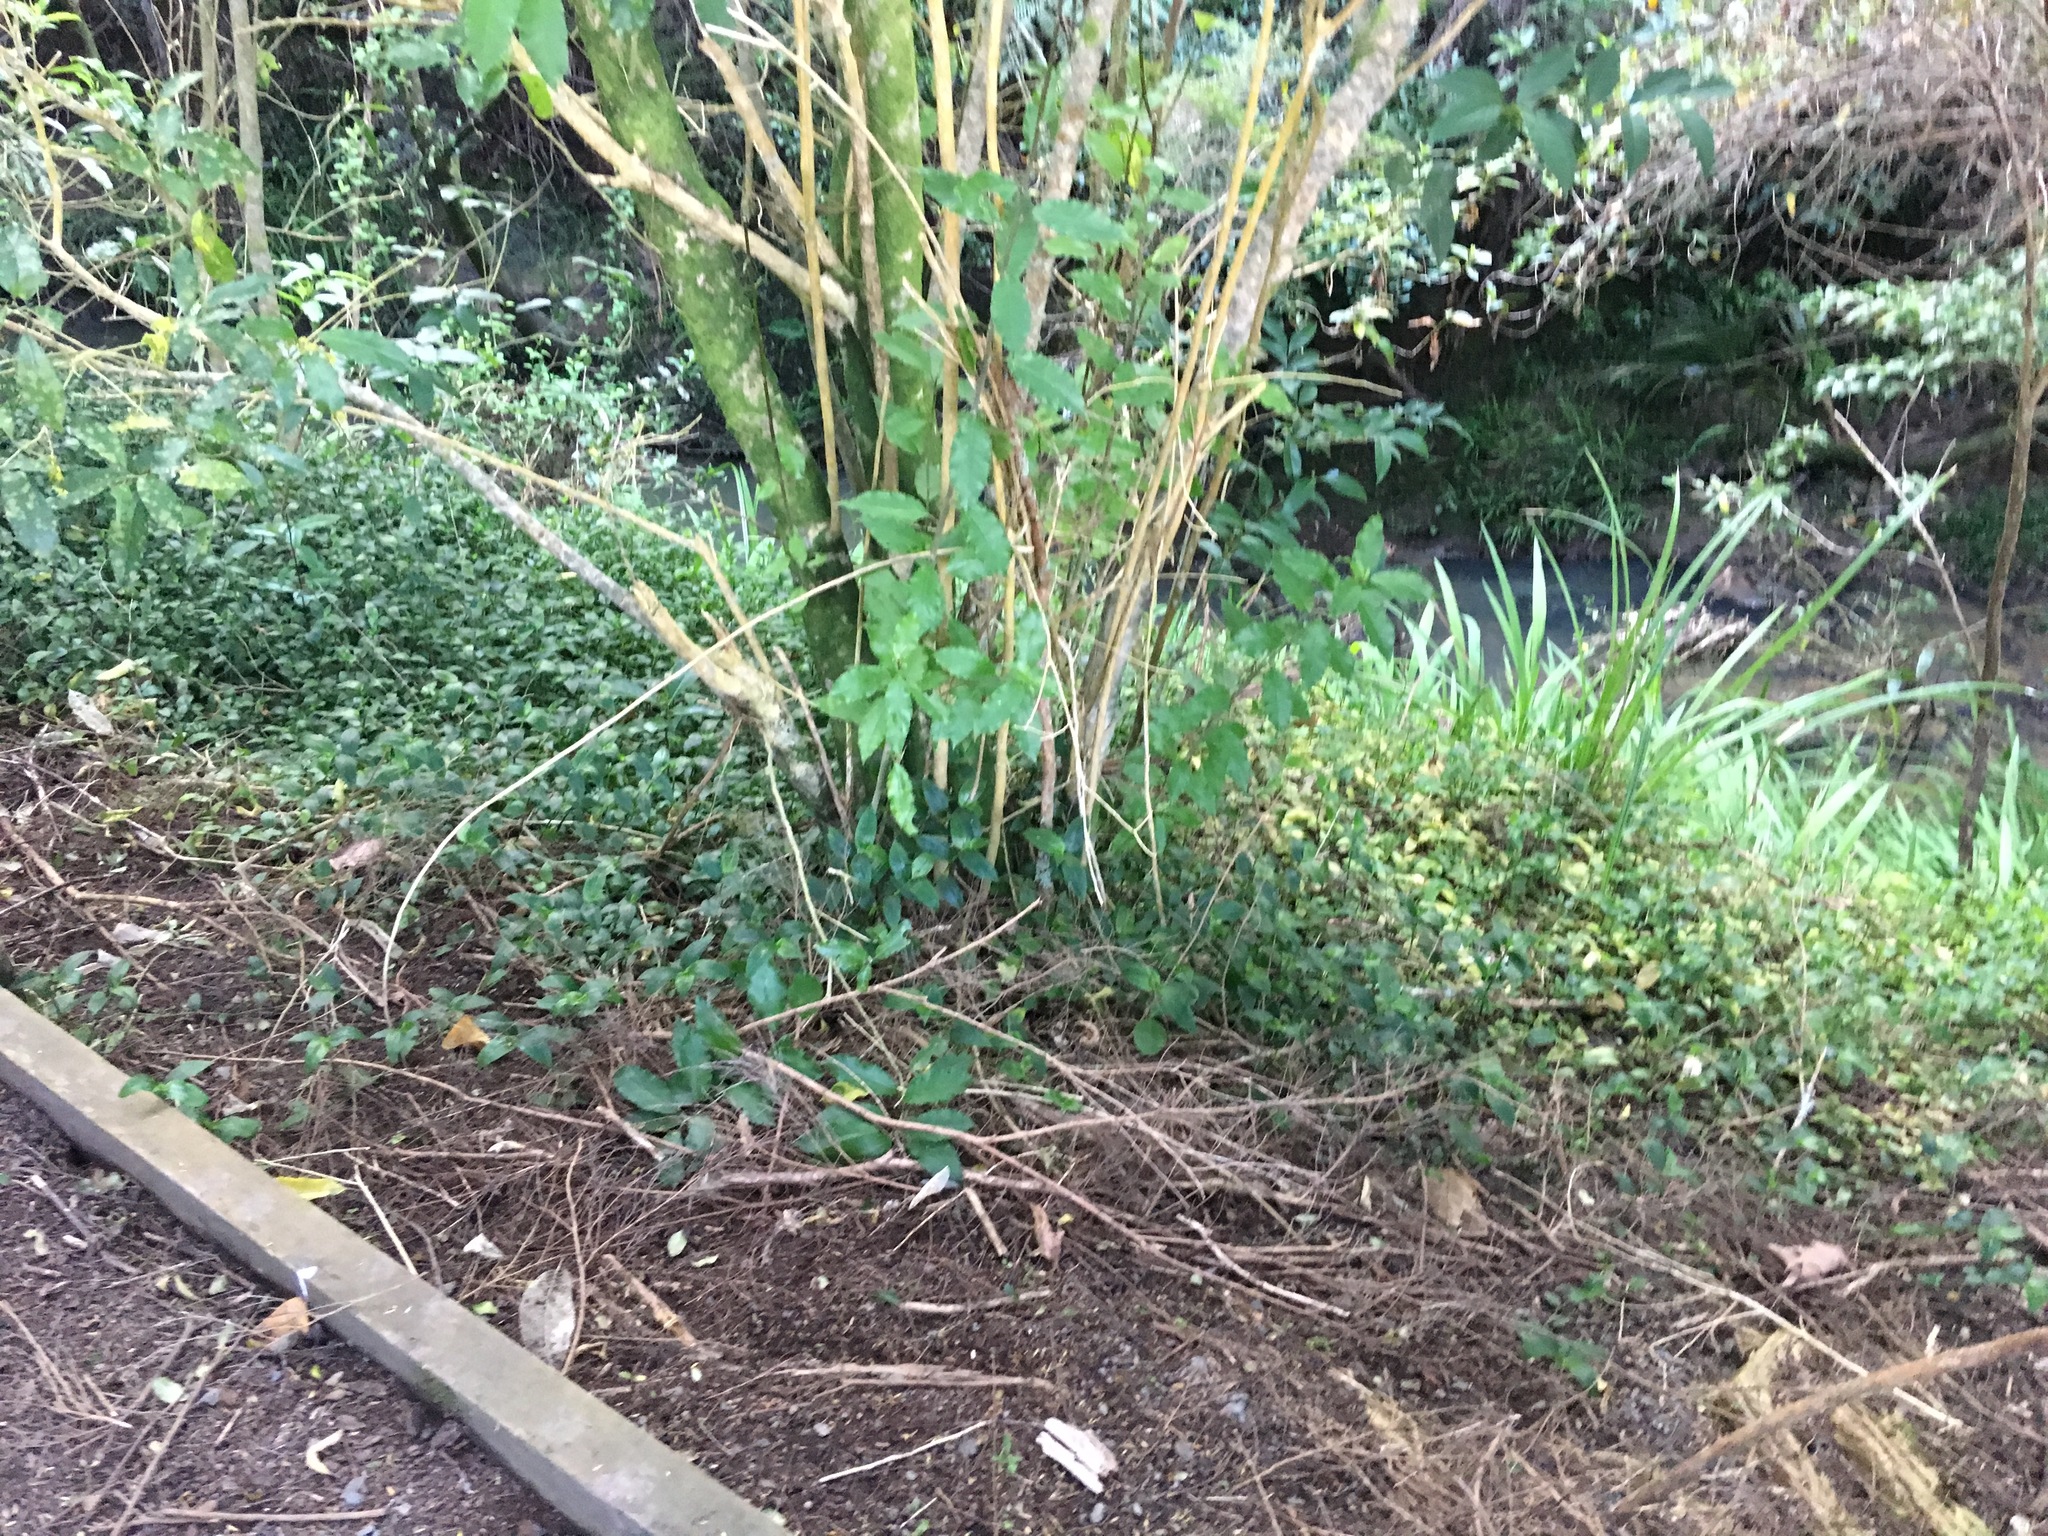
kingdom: Plantae
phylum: Tracheophyta
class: Liliopsida
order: Commelinales
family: Commelinaceae
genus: Tradescantia
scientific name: Tradescantia fluminensis
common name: Wandering-jew
